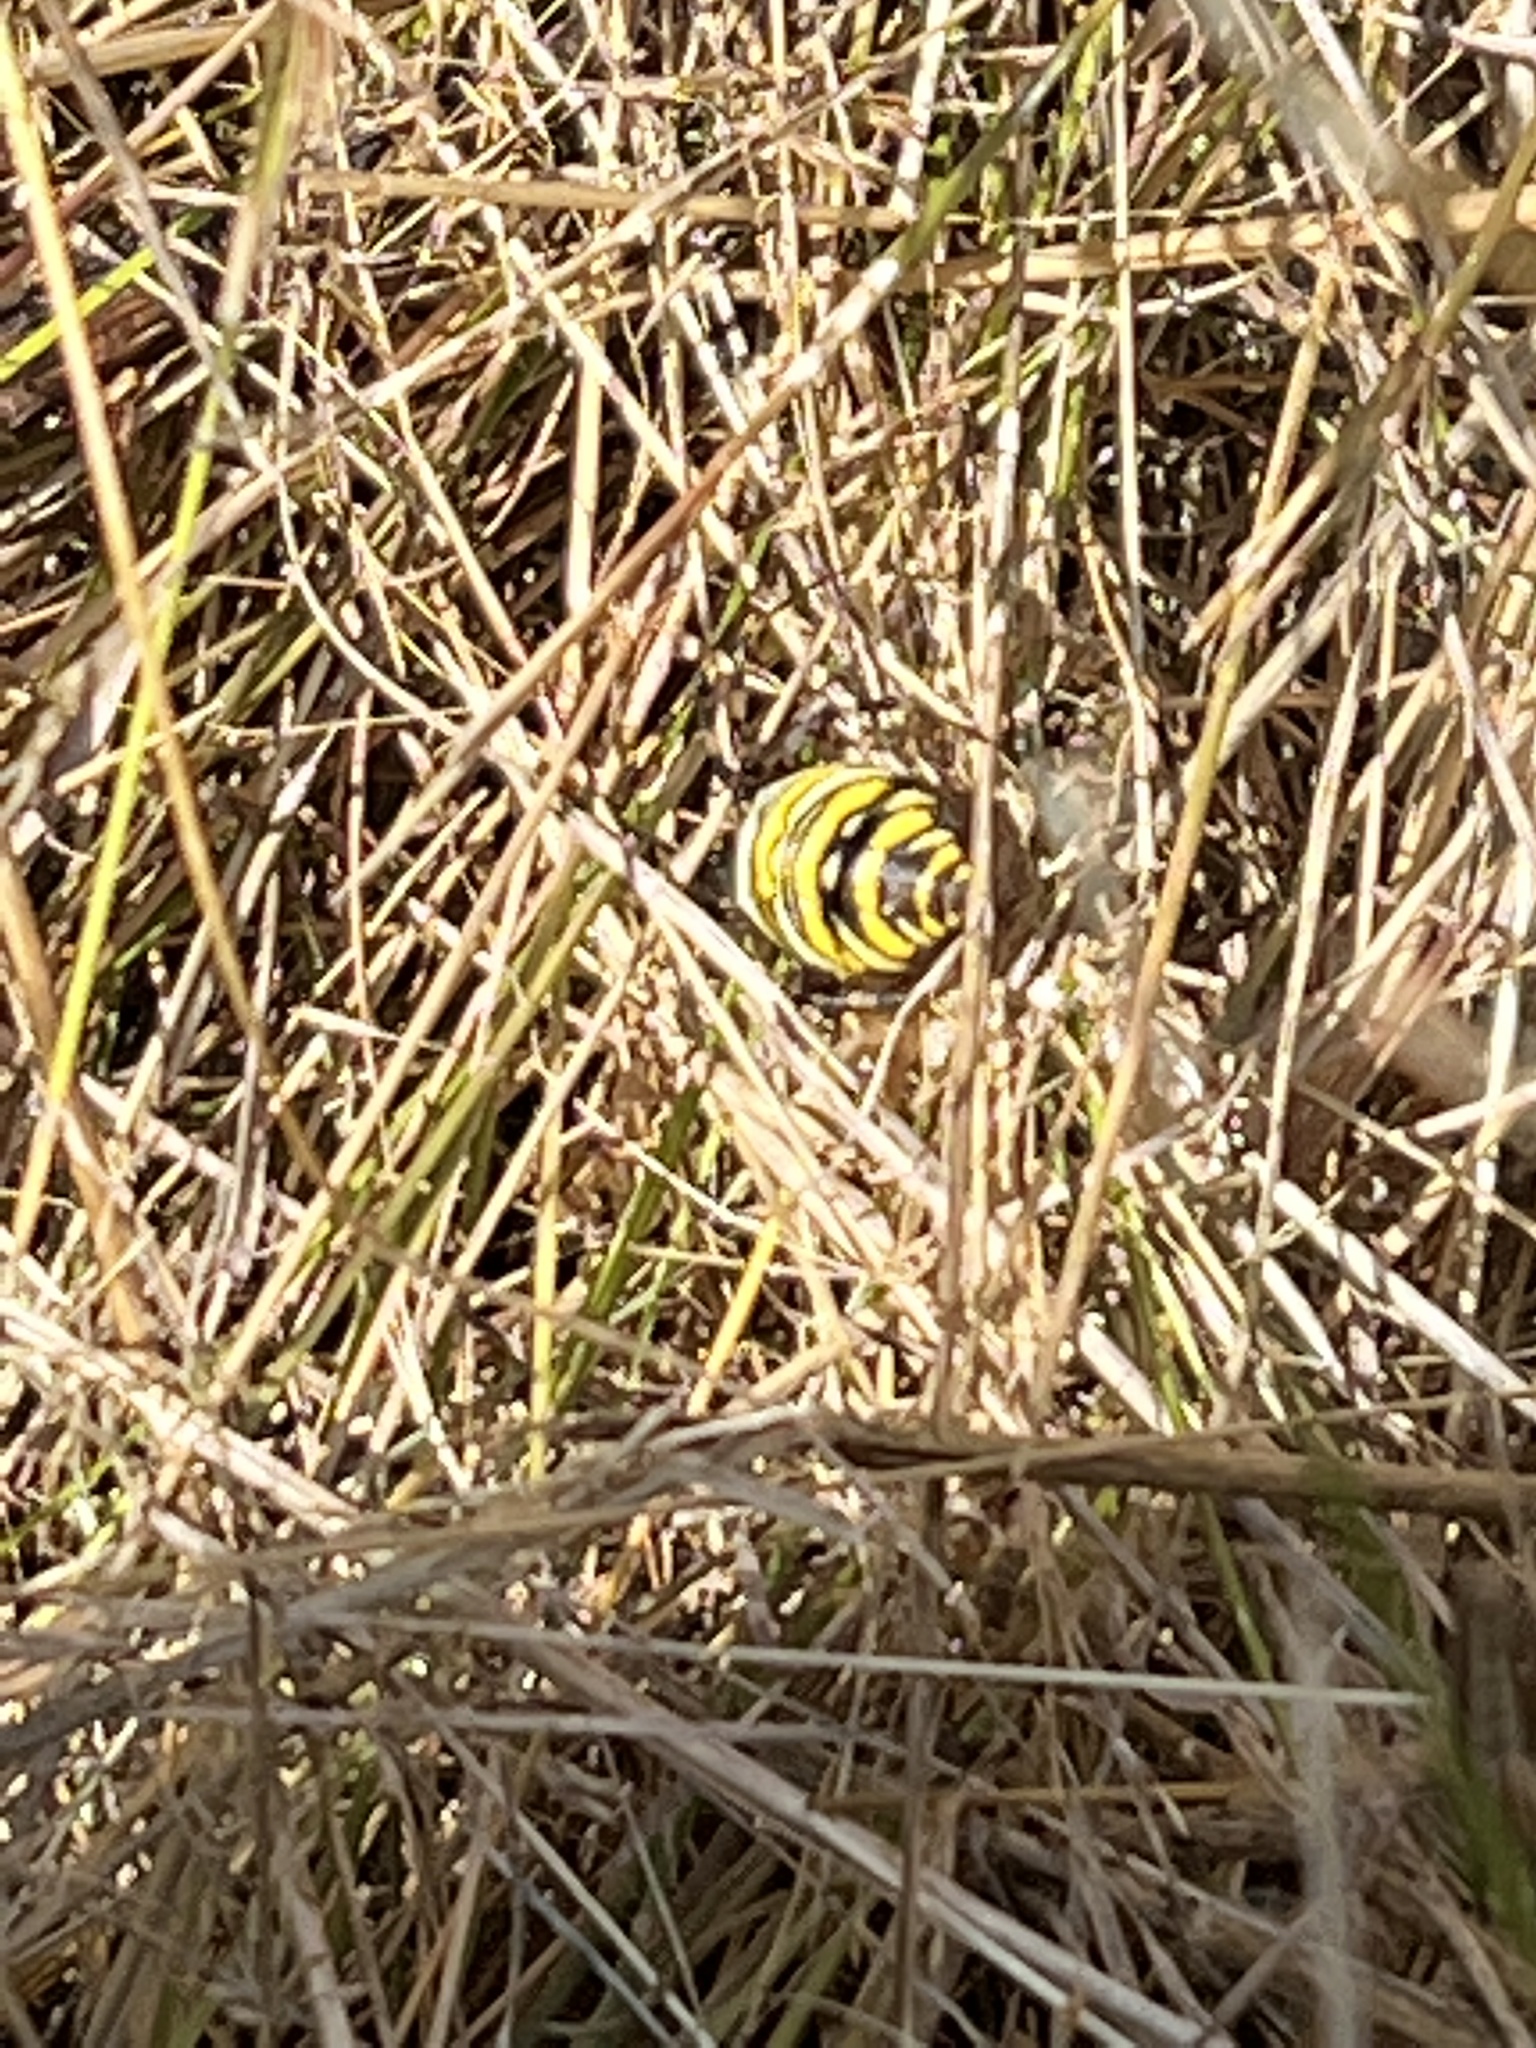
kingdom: Animalia
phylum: Arthropoda
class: Arachnida
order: Araneae
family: Araneidae
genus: Argiope
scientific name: Argiope bruennichi
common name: Wasp spider
